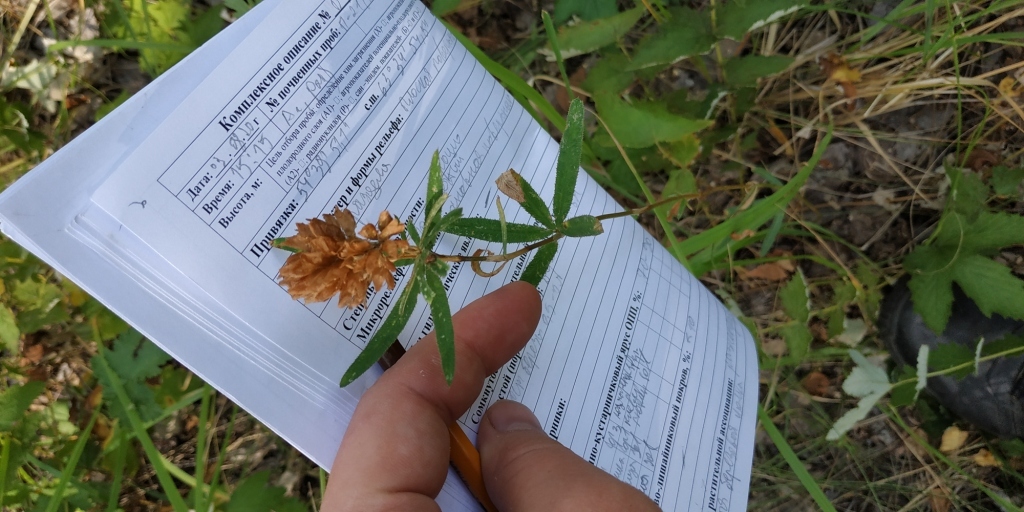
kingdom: Plantae
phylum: Tracheophyta
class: Magnoliopsida
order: Fabales
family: Fabaceae
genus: Trifolium
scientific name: Trifolium lupinaster
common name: Lupine clover
